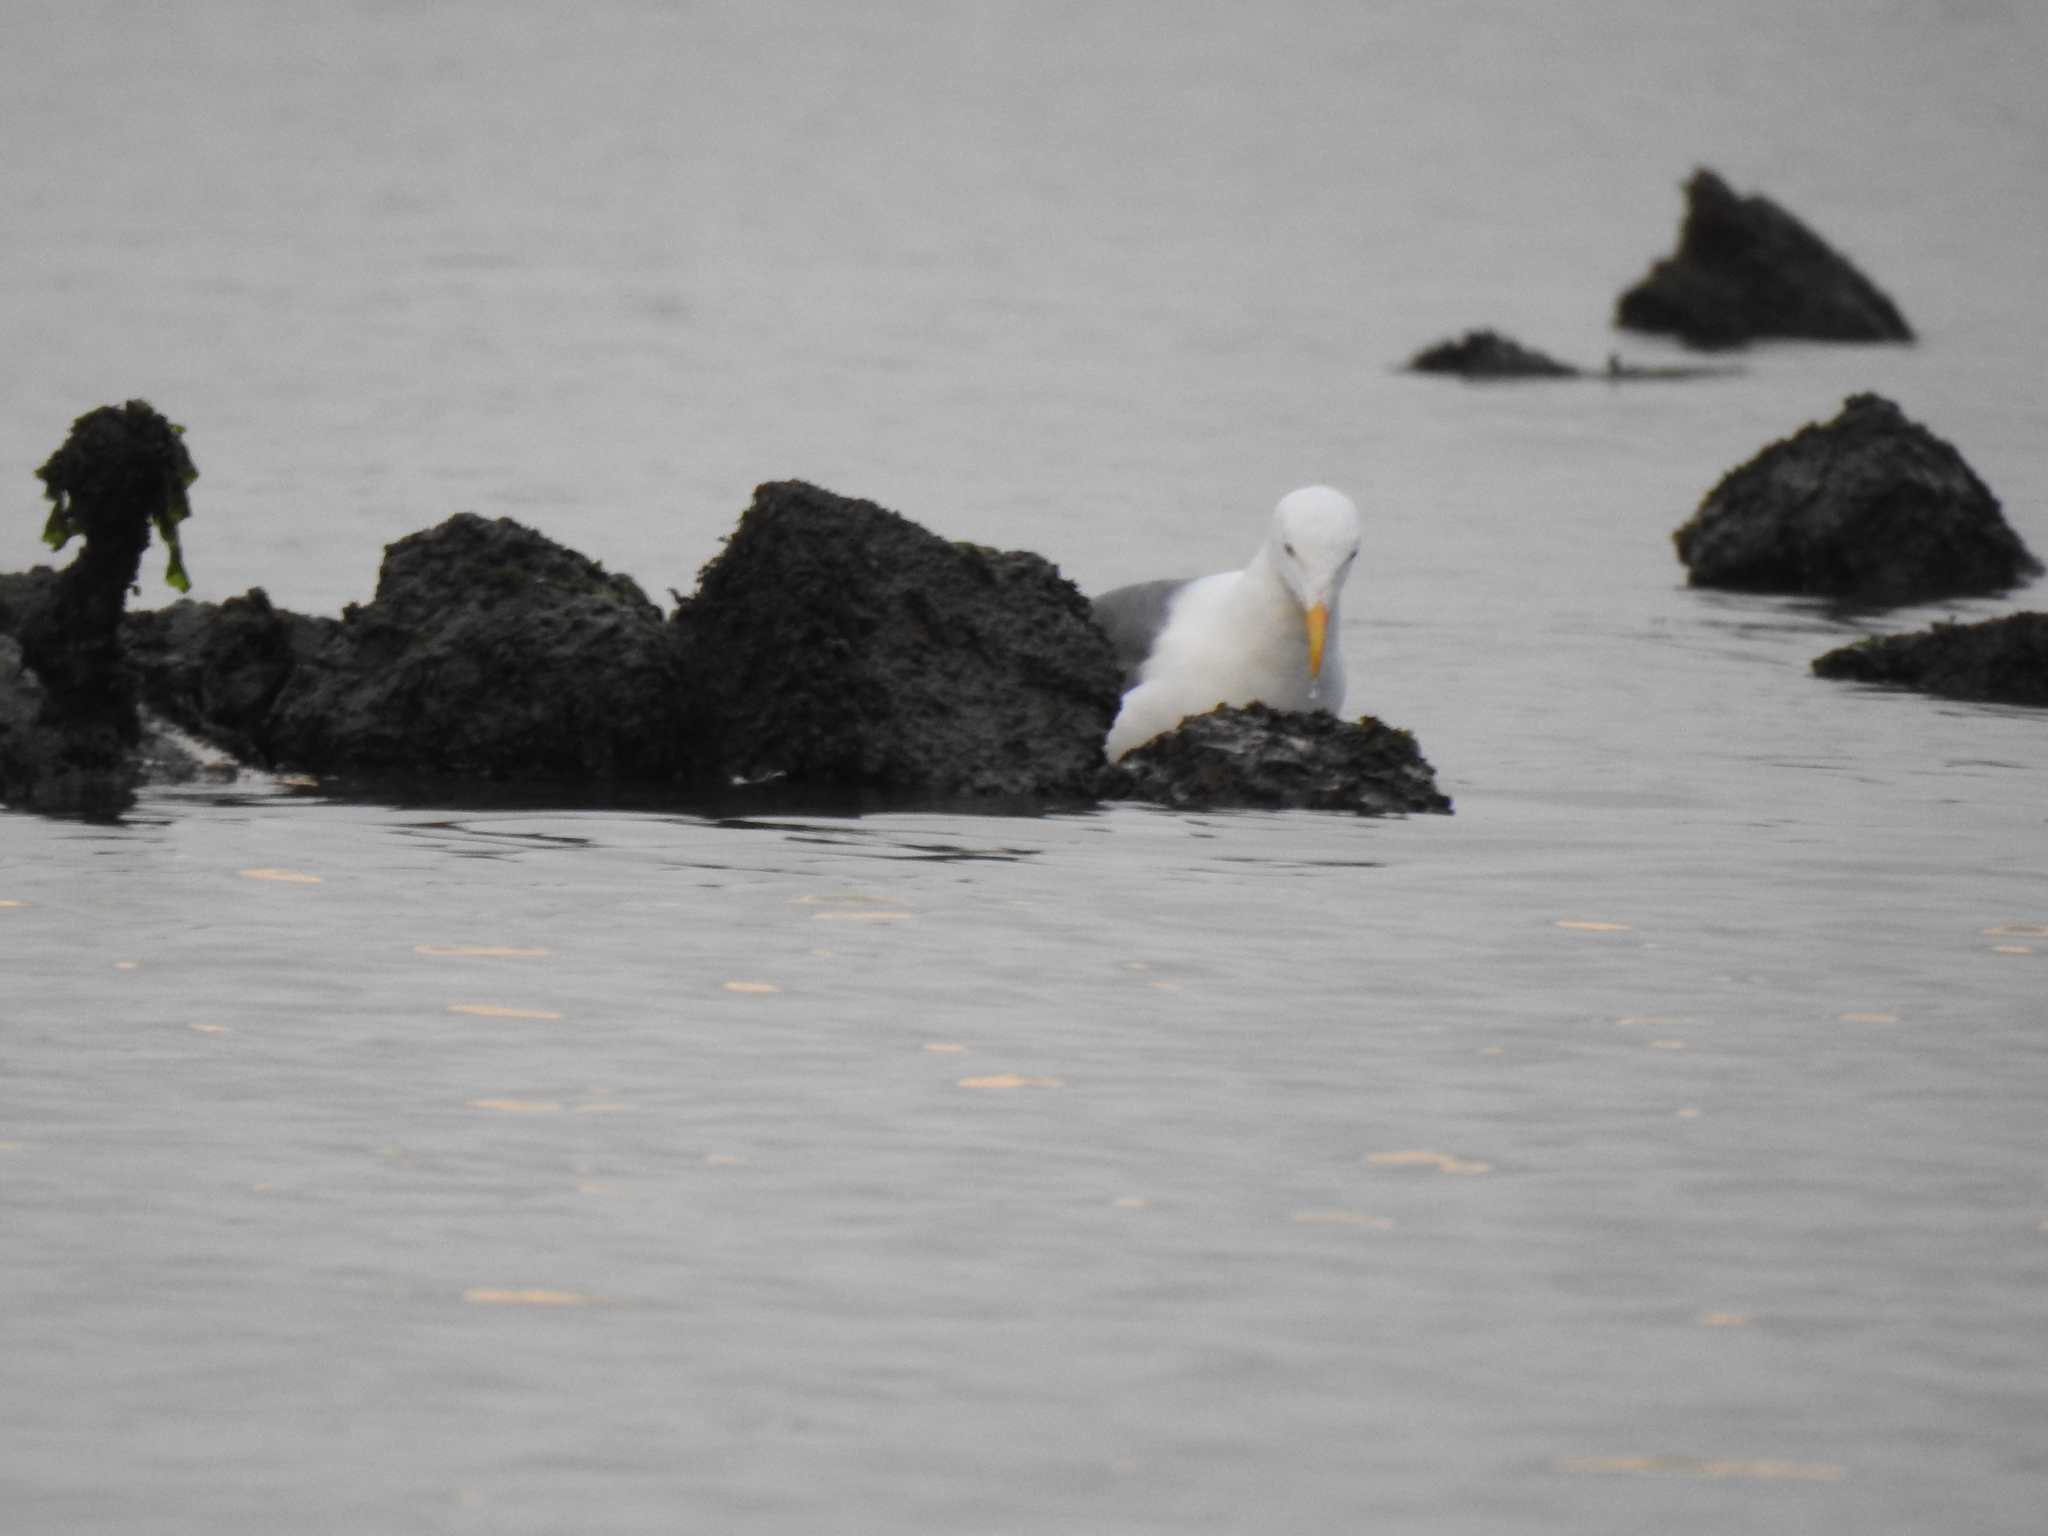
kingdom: Animalia
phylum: Chordata
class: Aves
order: Charadriiformes
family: Laridae
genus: Larus
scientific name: Larus occidentalis
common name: Western gull
